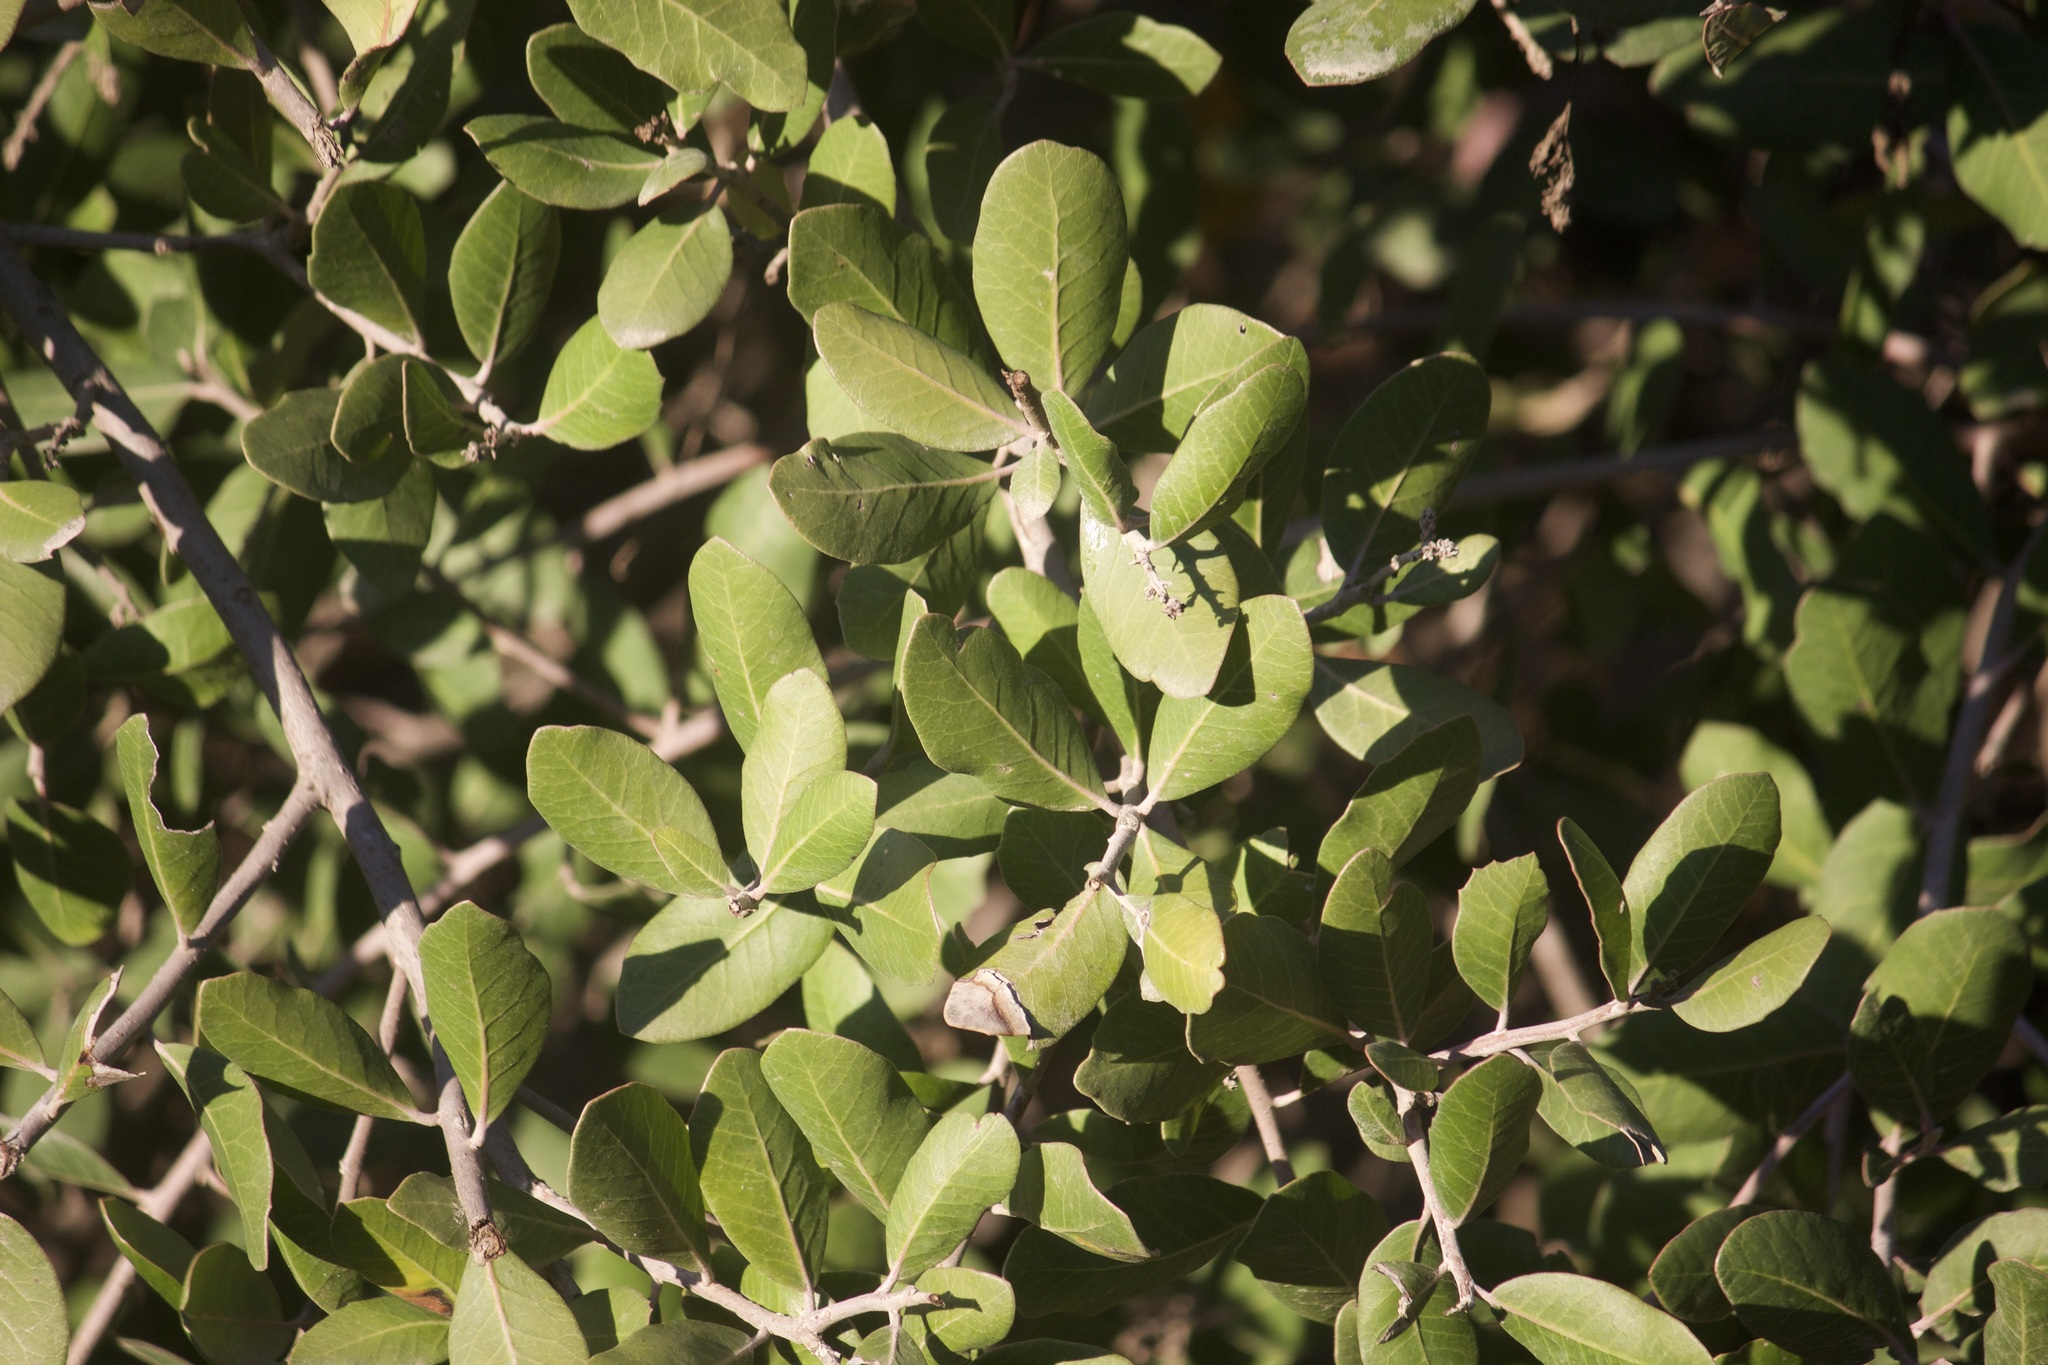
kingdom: Plantae
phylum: Tracheophyta
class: Magnoliopsida
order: Sapindales
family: Anacardiaceae
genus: Rhus
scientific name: Rhus integrifolia
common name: Lemonade sumac
